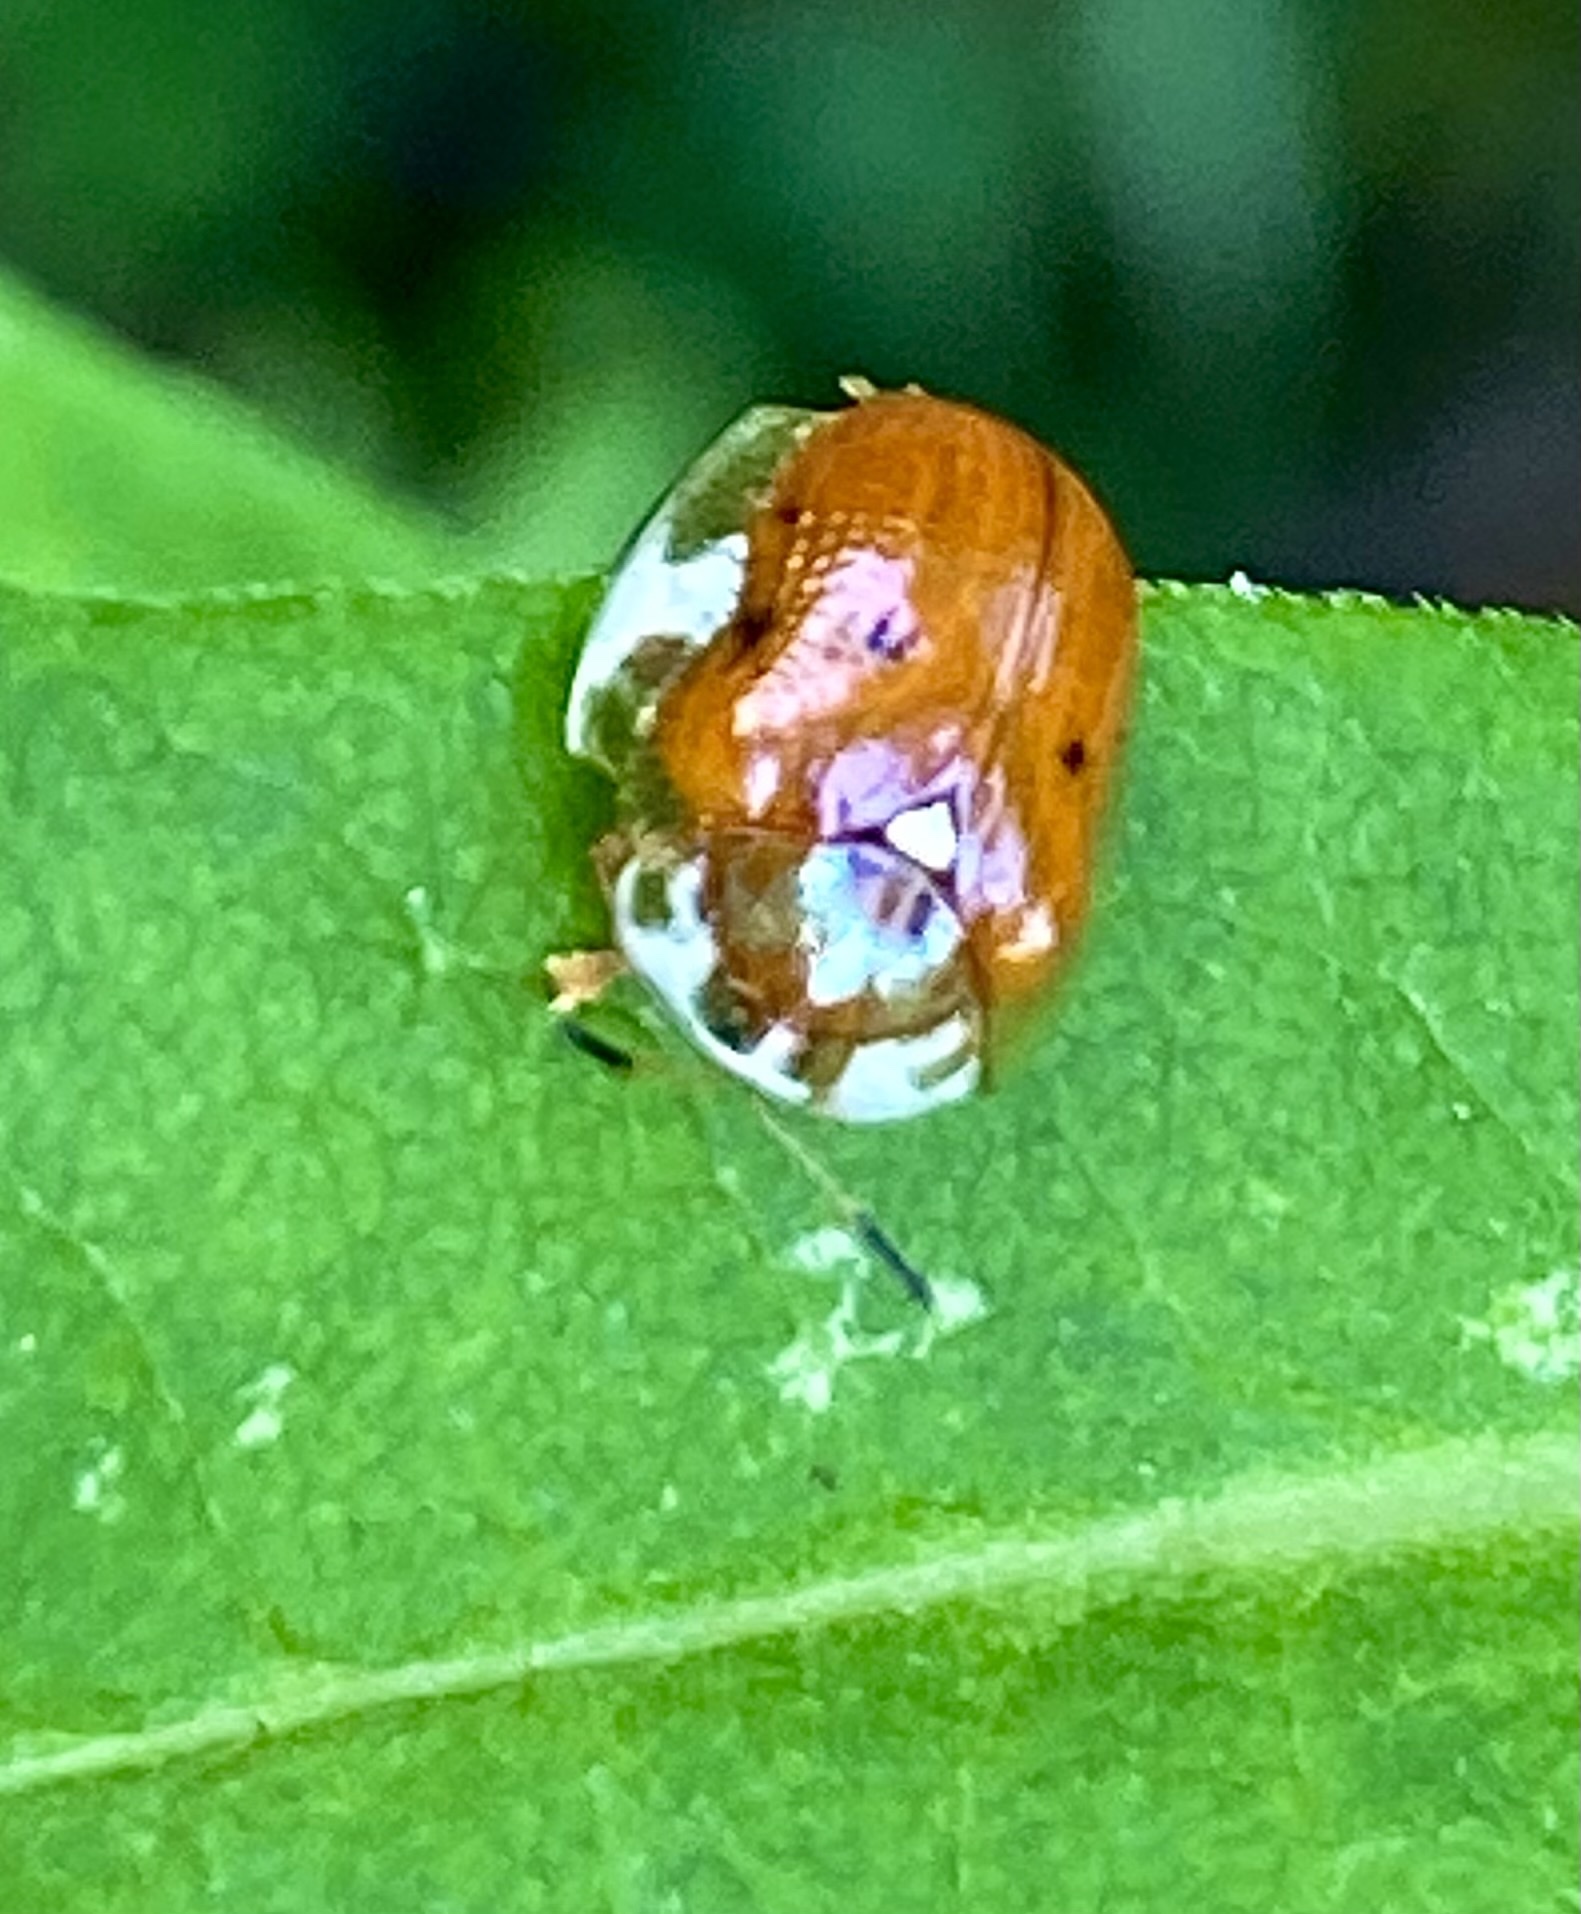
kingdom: Animalia
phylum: Arthropoda
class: Insecta
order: Coleoptera
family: Chrysomelidae
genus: Charidotella
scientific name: Charidotella sexpunctata
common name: Golden tortoise beetle
